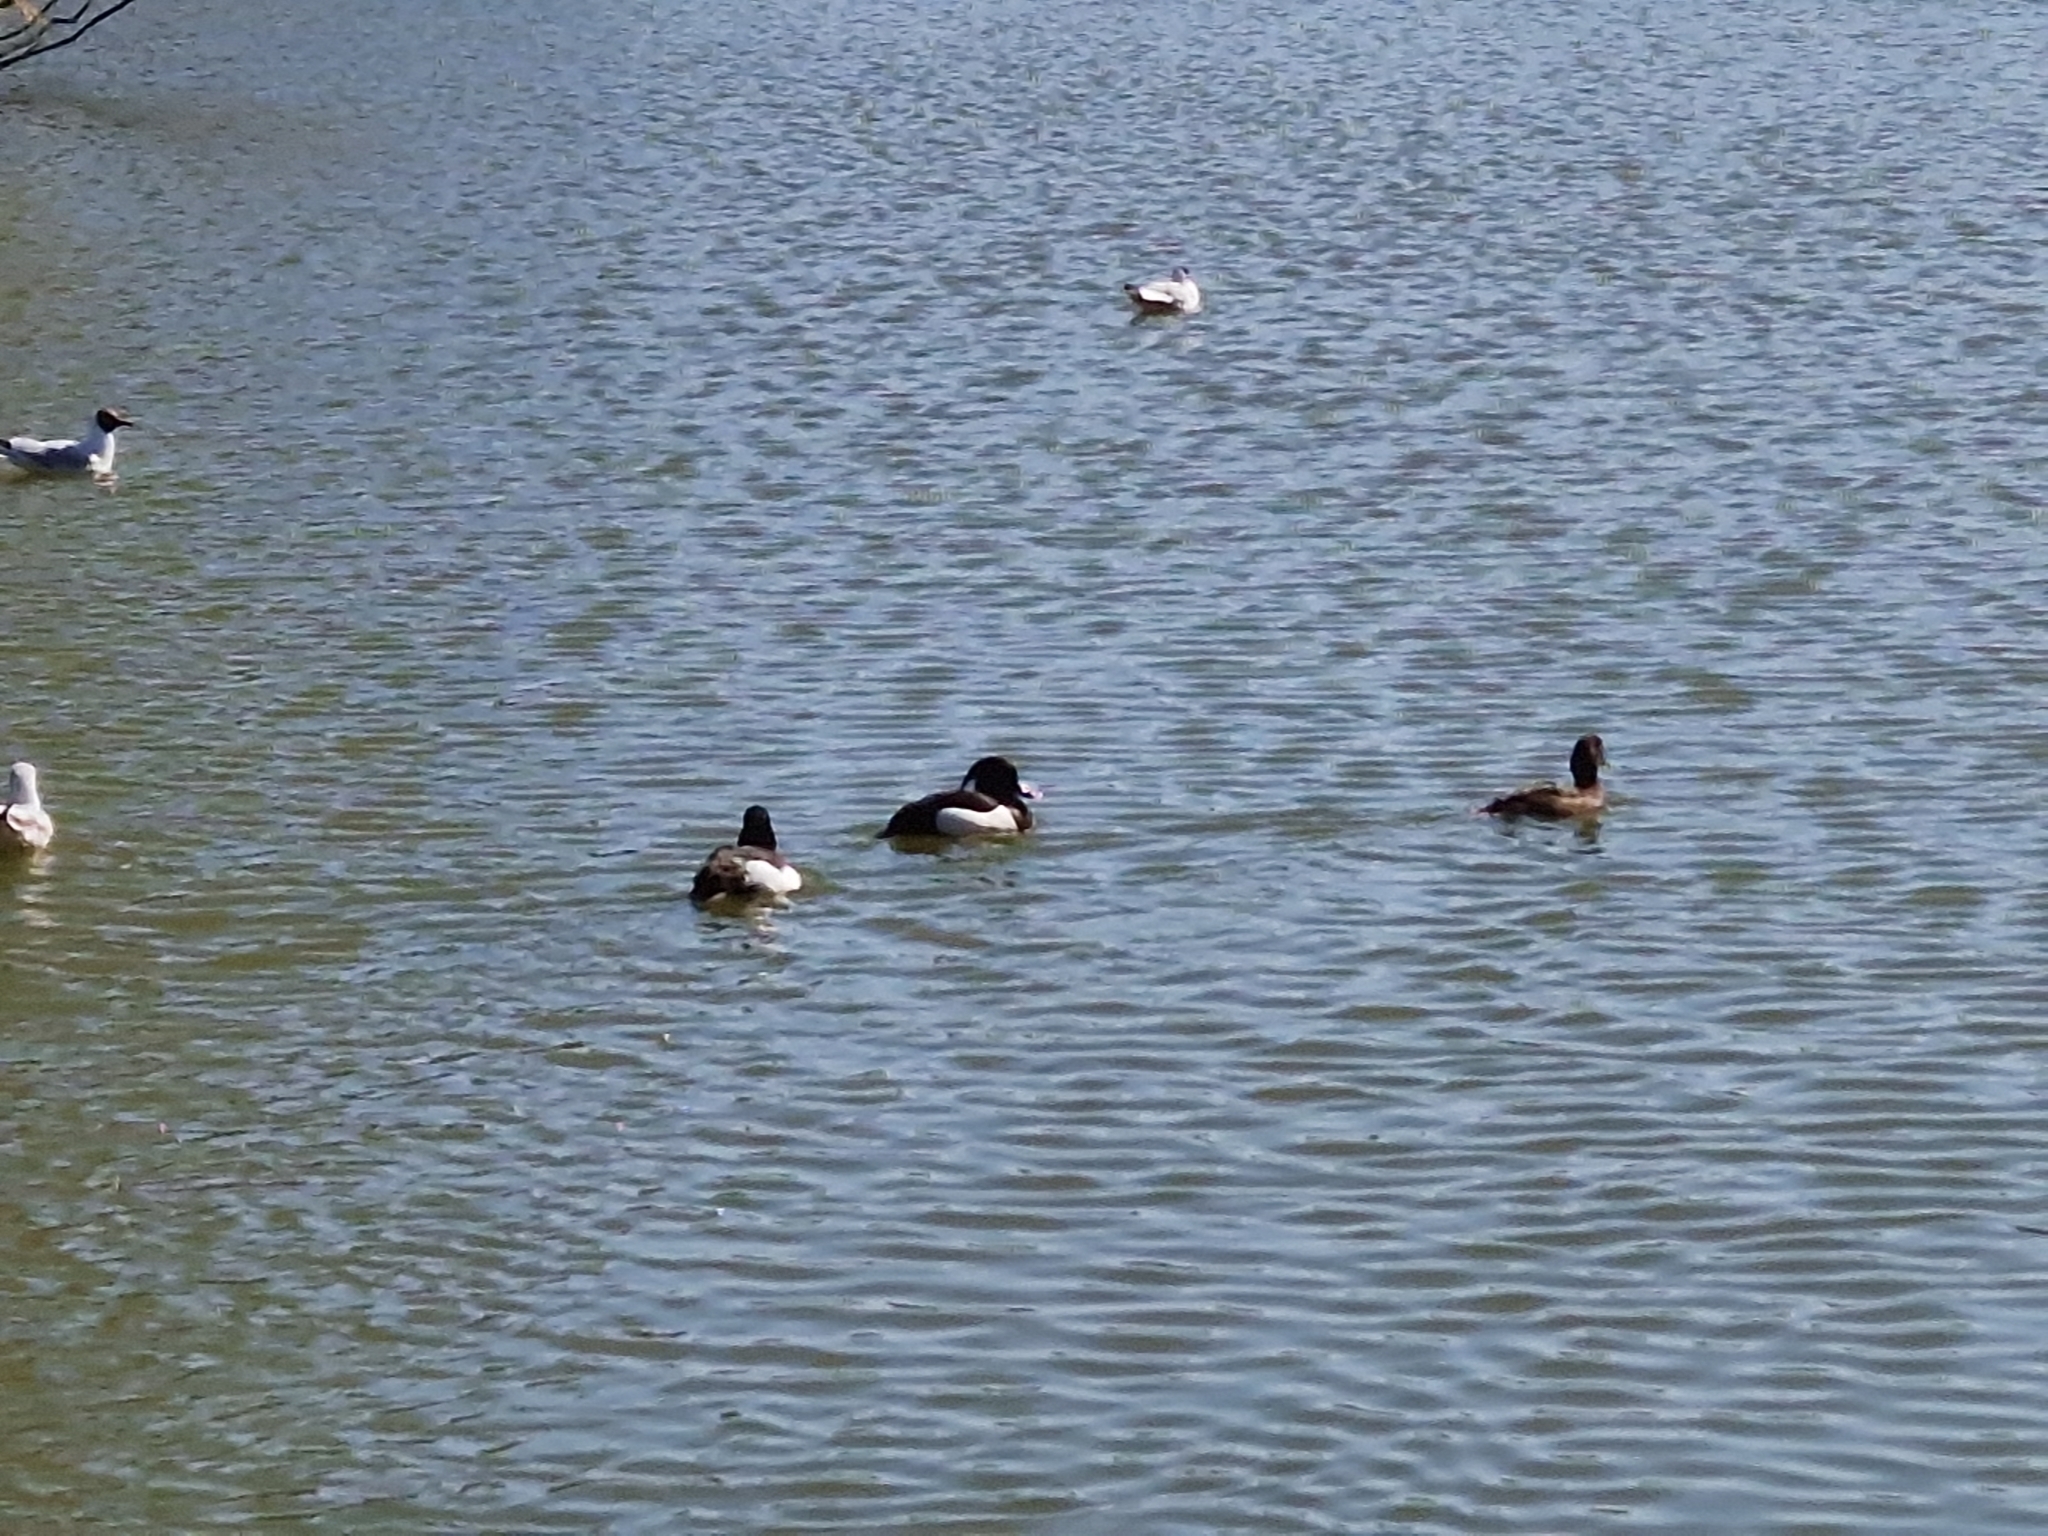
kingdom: Animalia
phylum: Chordata
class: Aves
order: Anseriformes
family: Anatidae
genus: Aythya
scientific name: Aythya fuligula
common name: Tufted duck
